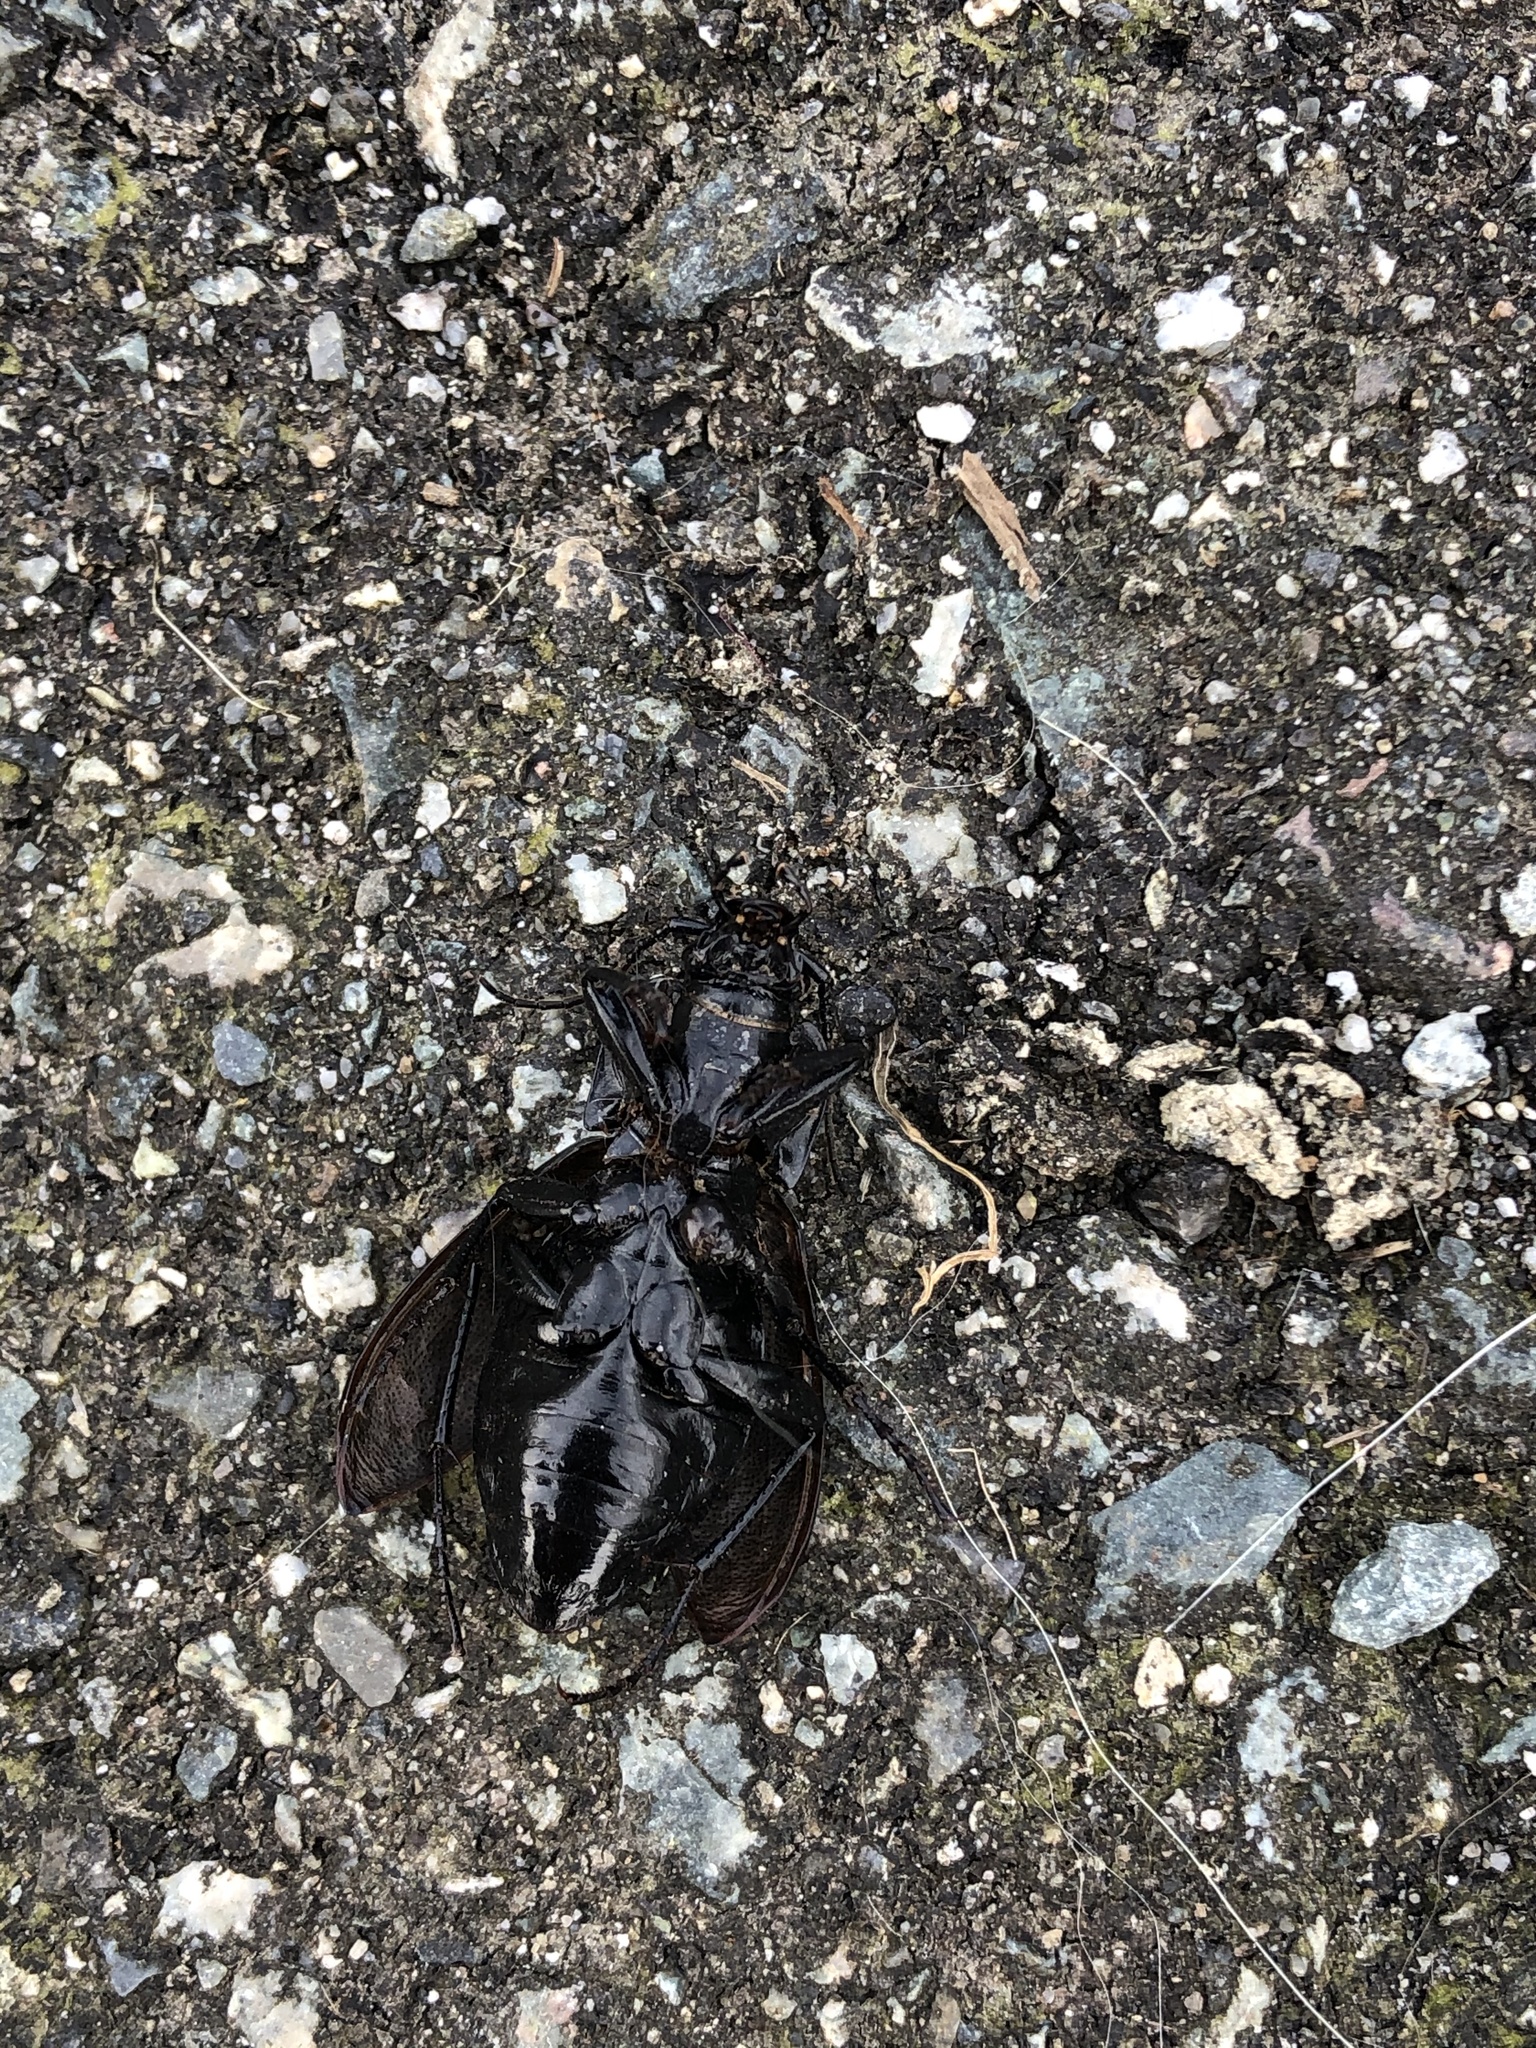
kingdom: Animalia
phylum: Arthropoda
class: Insecta
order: Coleoptera
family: Carabidae
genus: Carabus
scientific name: Carabus nemoralis
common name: European ground beetle
